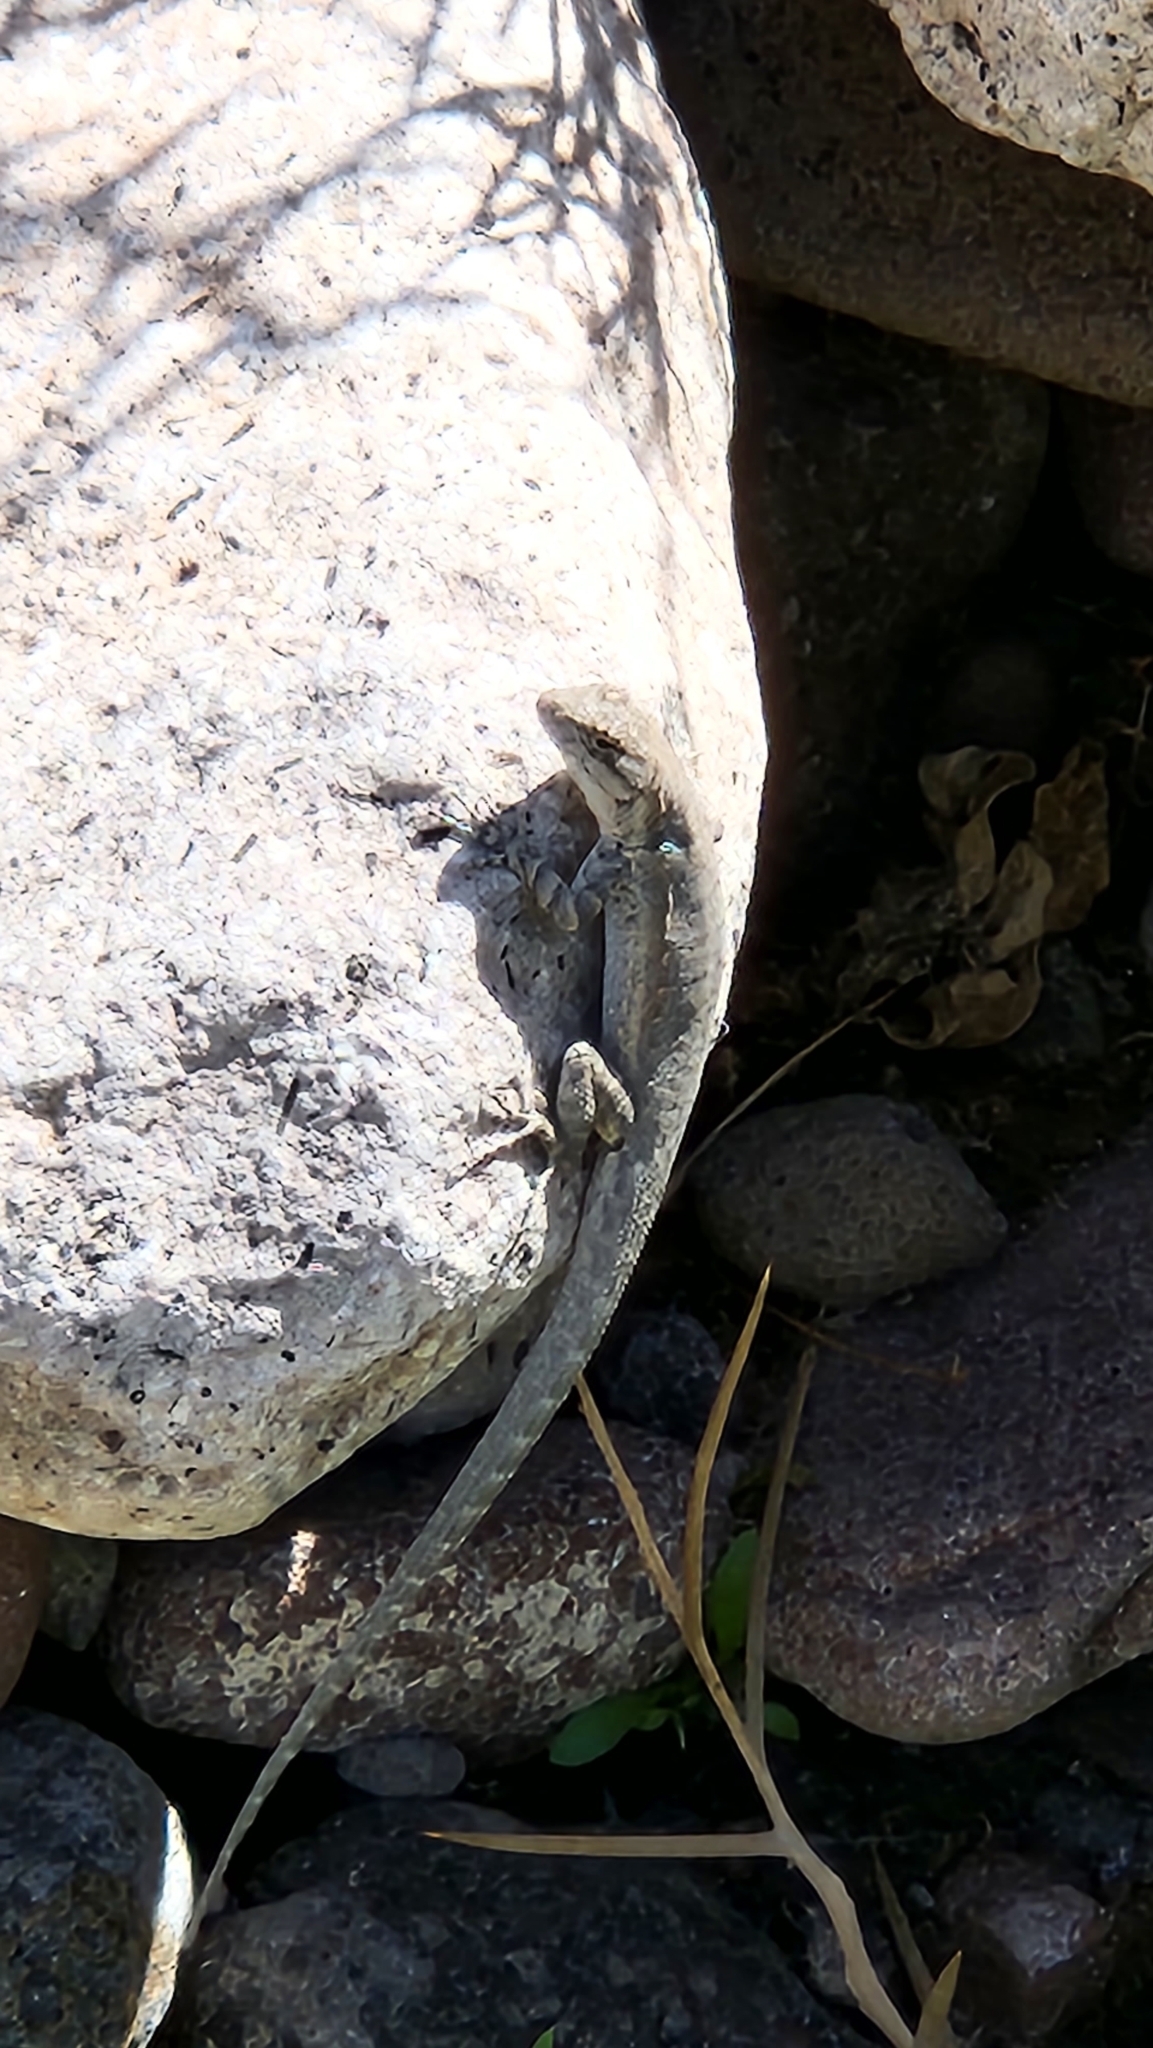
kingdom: Animalia
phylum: Chordata
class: Squamata
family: Phrynosomatidae
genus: Urosaurus
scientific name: Urosaurus nigricauda
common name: Baja california brush lizard
